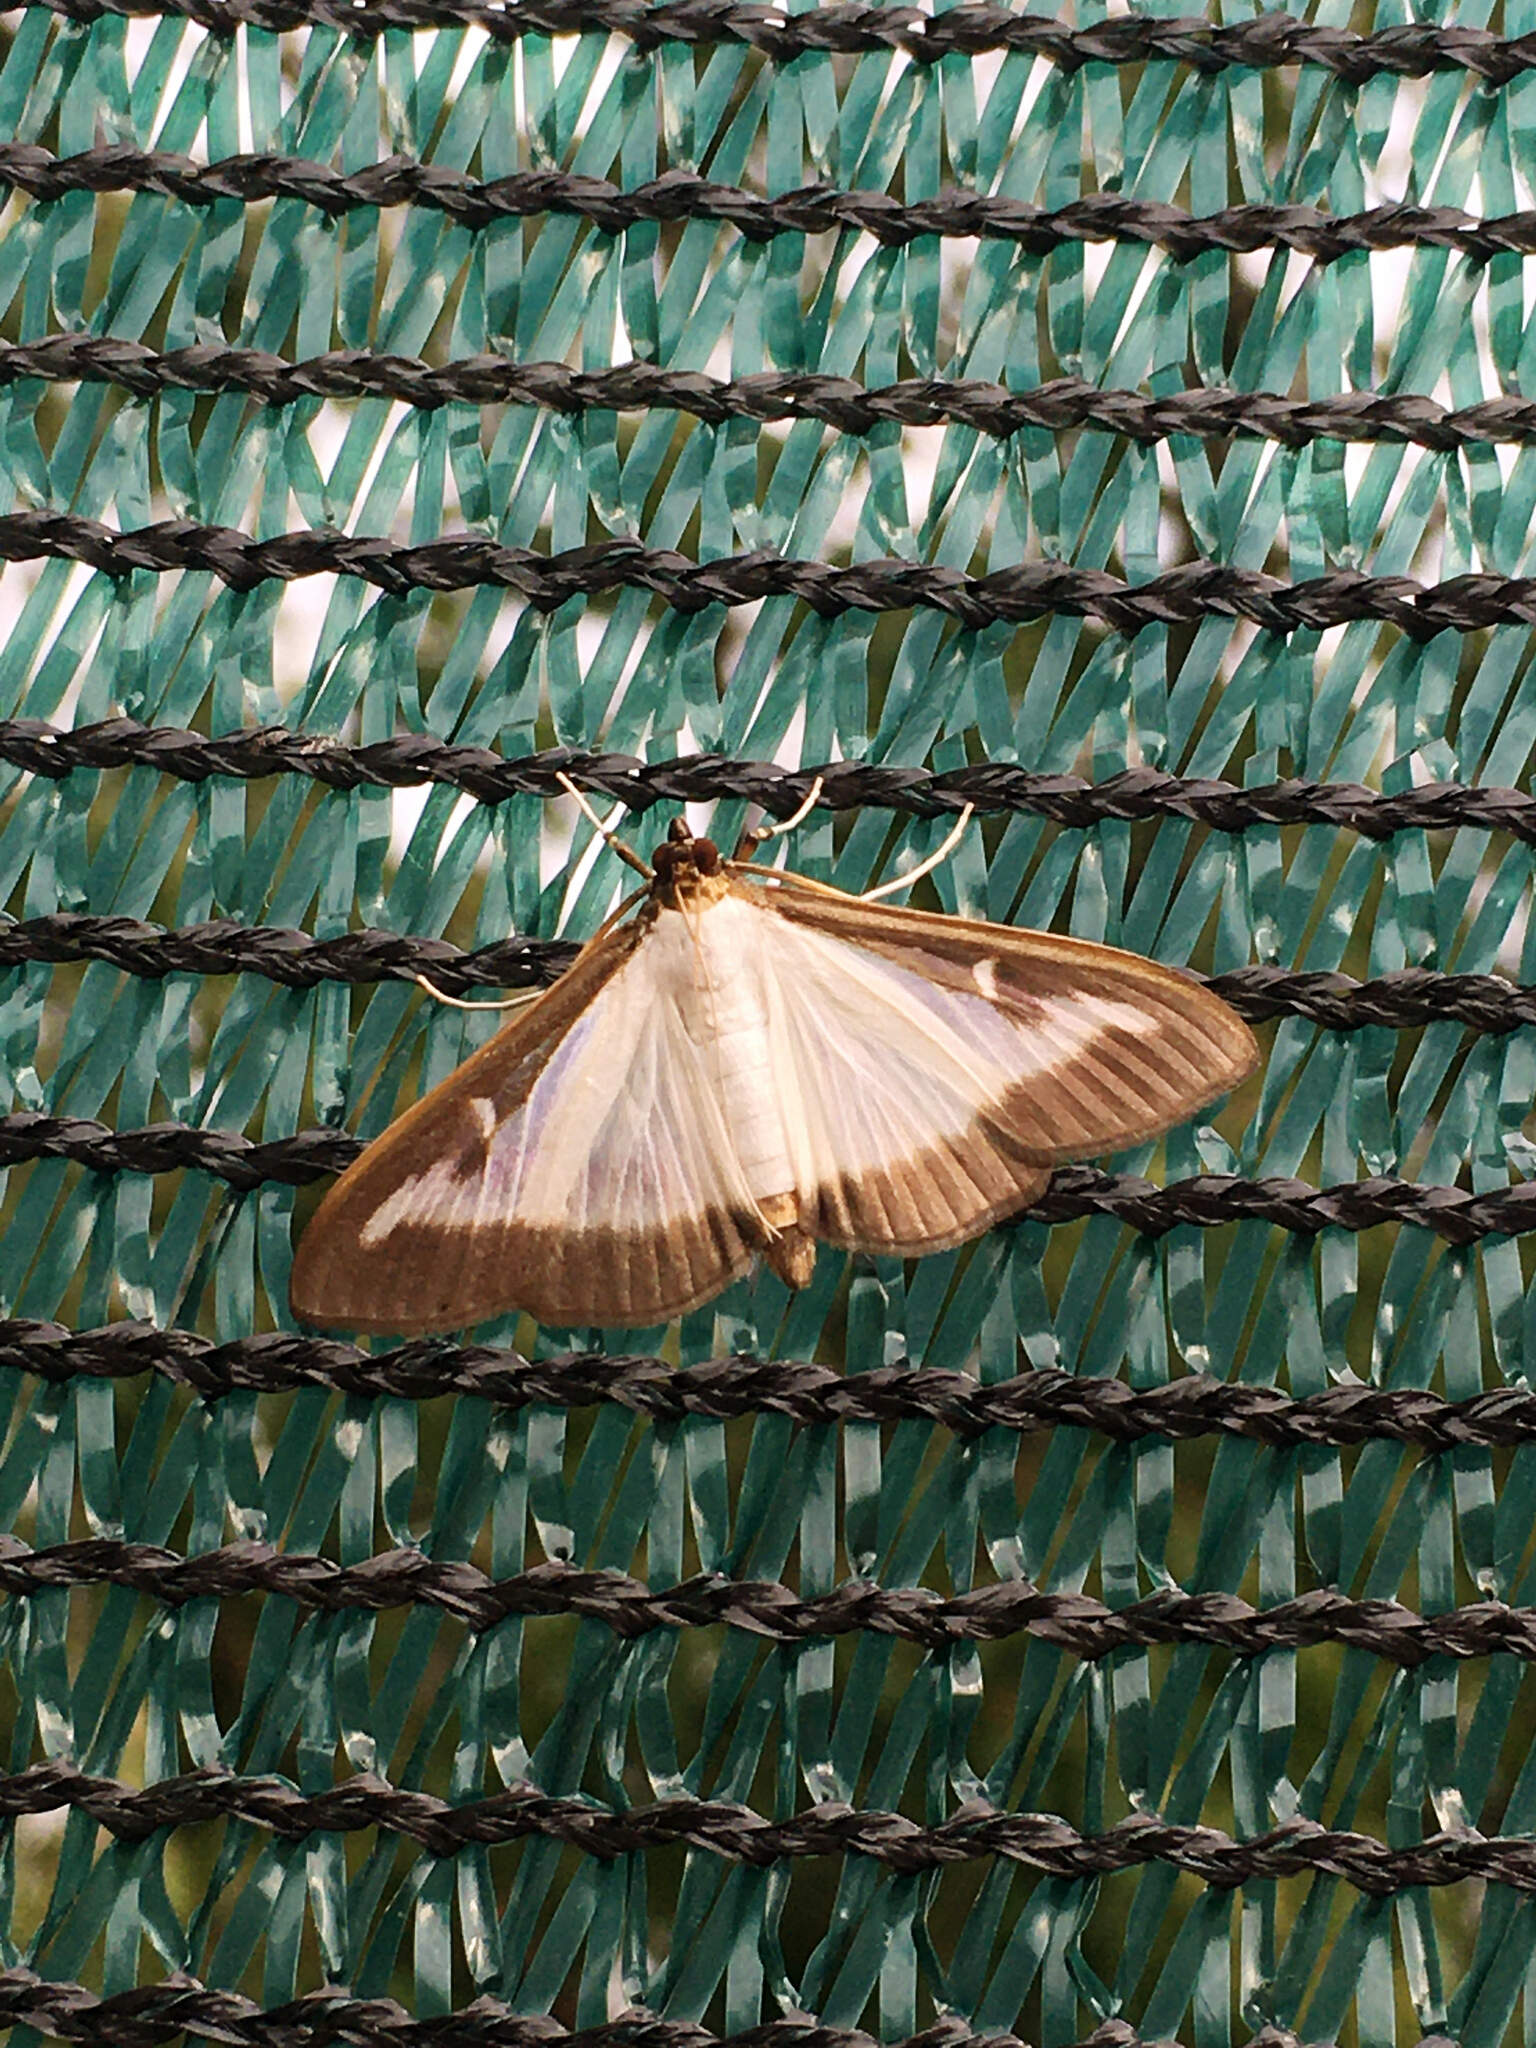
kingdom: Animalia
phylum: Arthropoda
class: Insecta
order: Lepidoptera
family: Crambidae
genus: Cydalima
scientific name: Cydalima perspectalis
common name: Box tree moth
